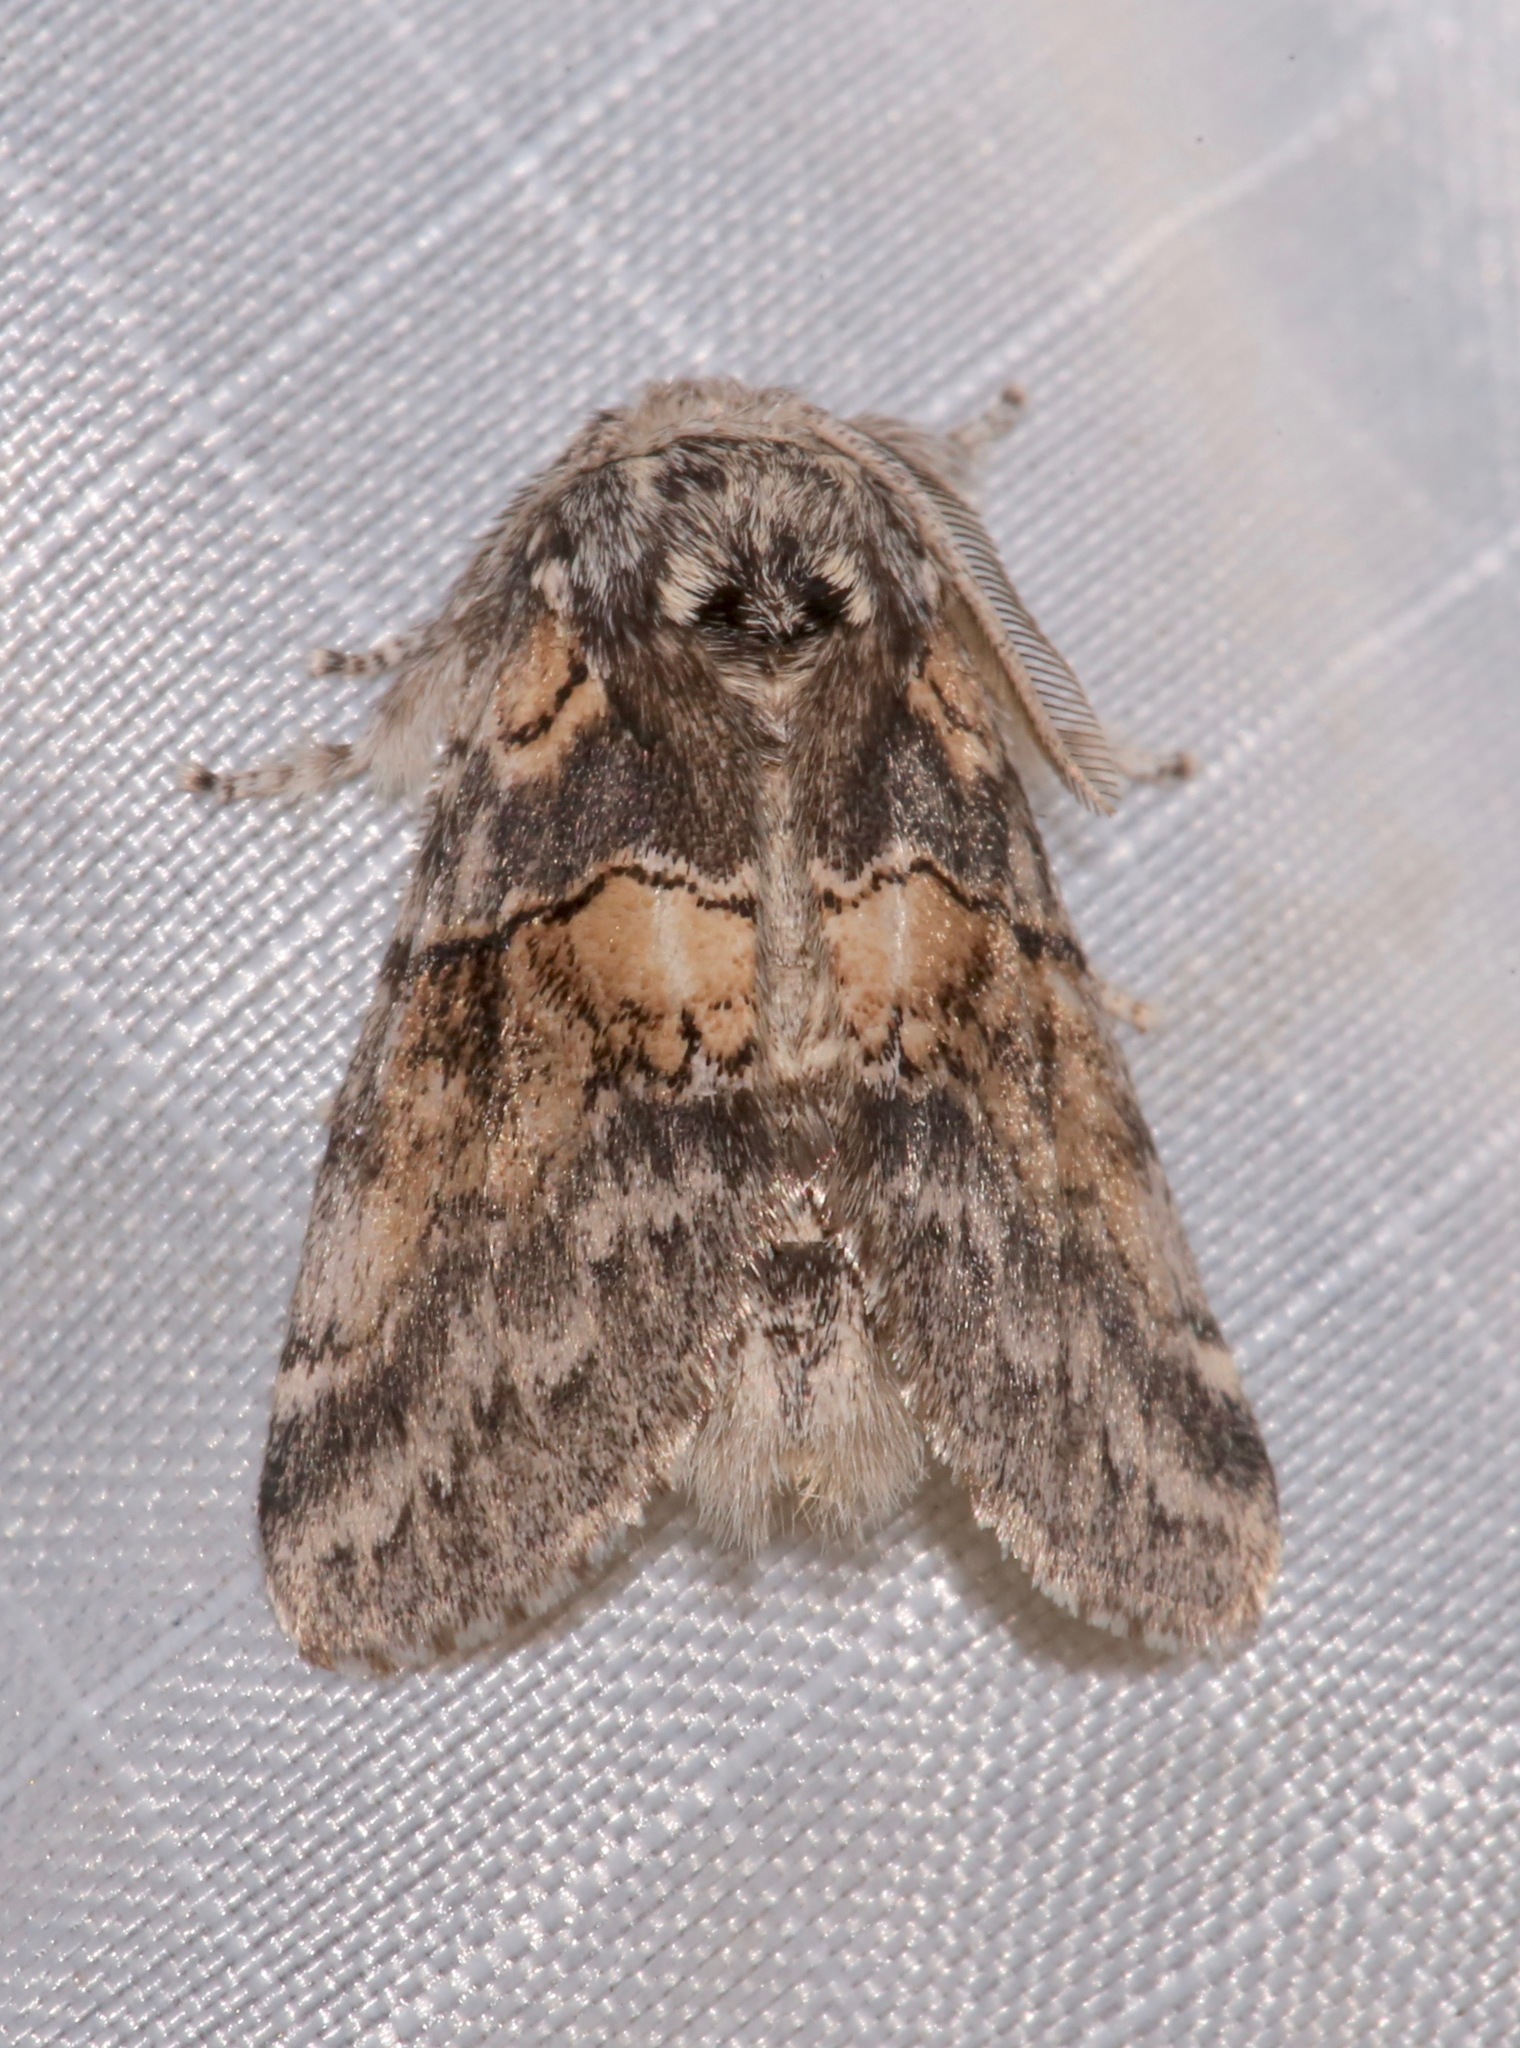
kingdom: Animalia
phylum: Arthropoda
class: Insecta
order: Lepidoptera
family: Notodontidae
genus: Gluphisia
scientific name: Gluphisia septentrionis
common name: Common gluphisia
